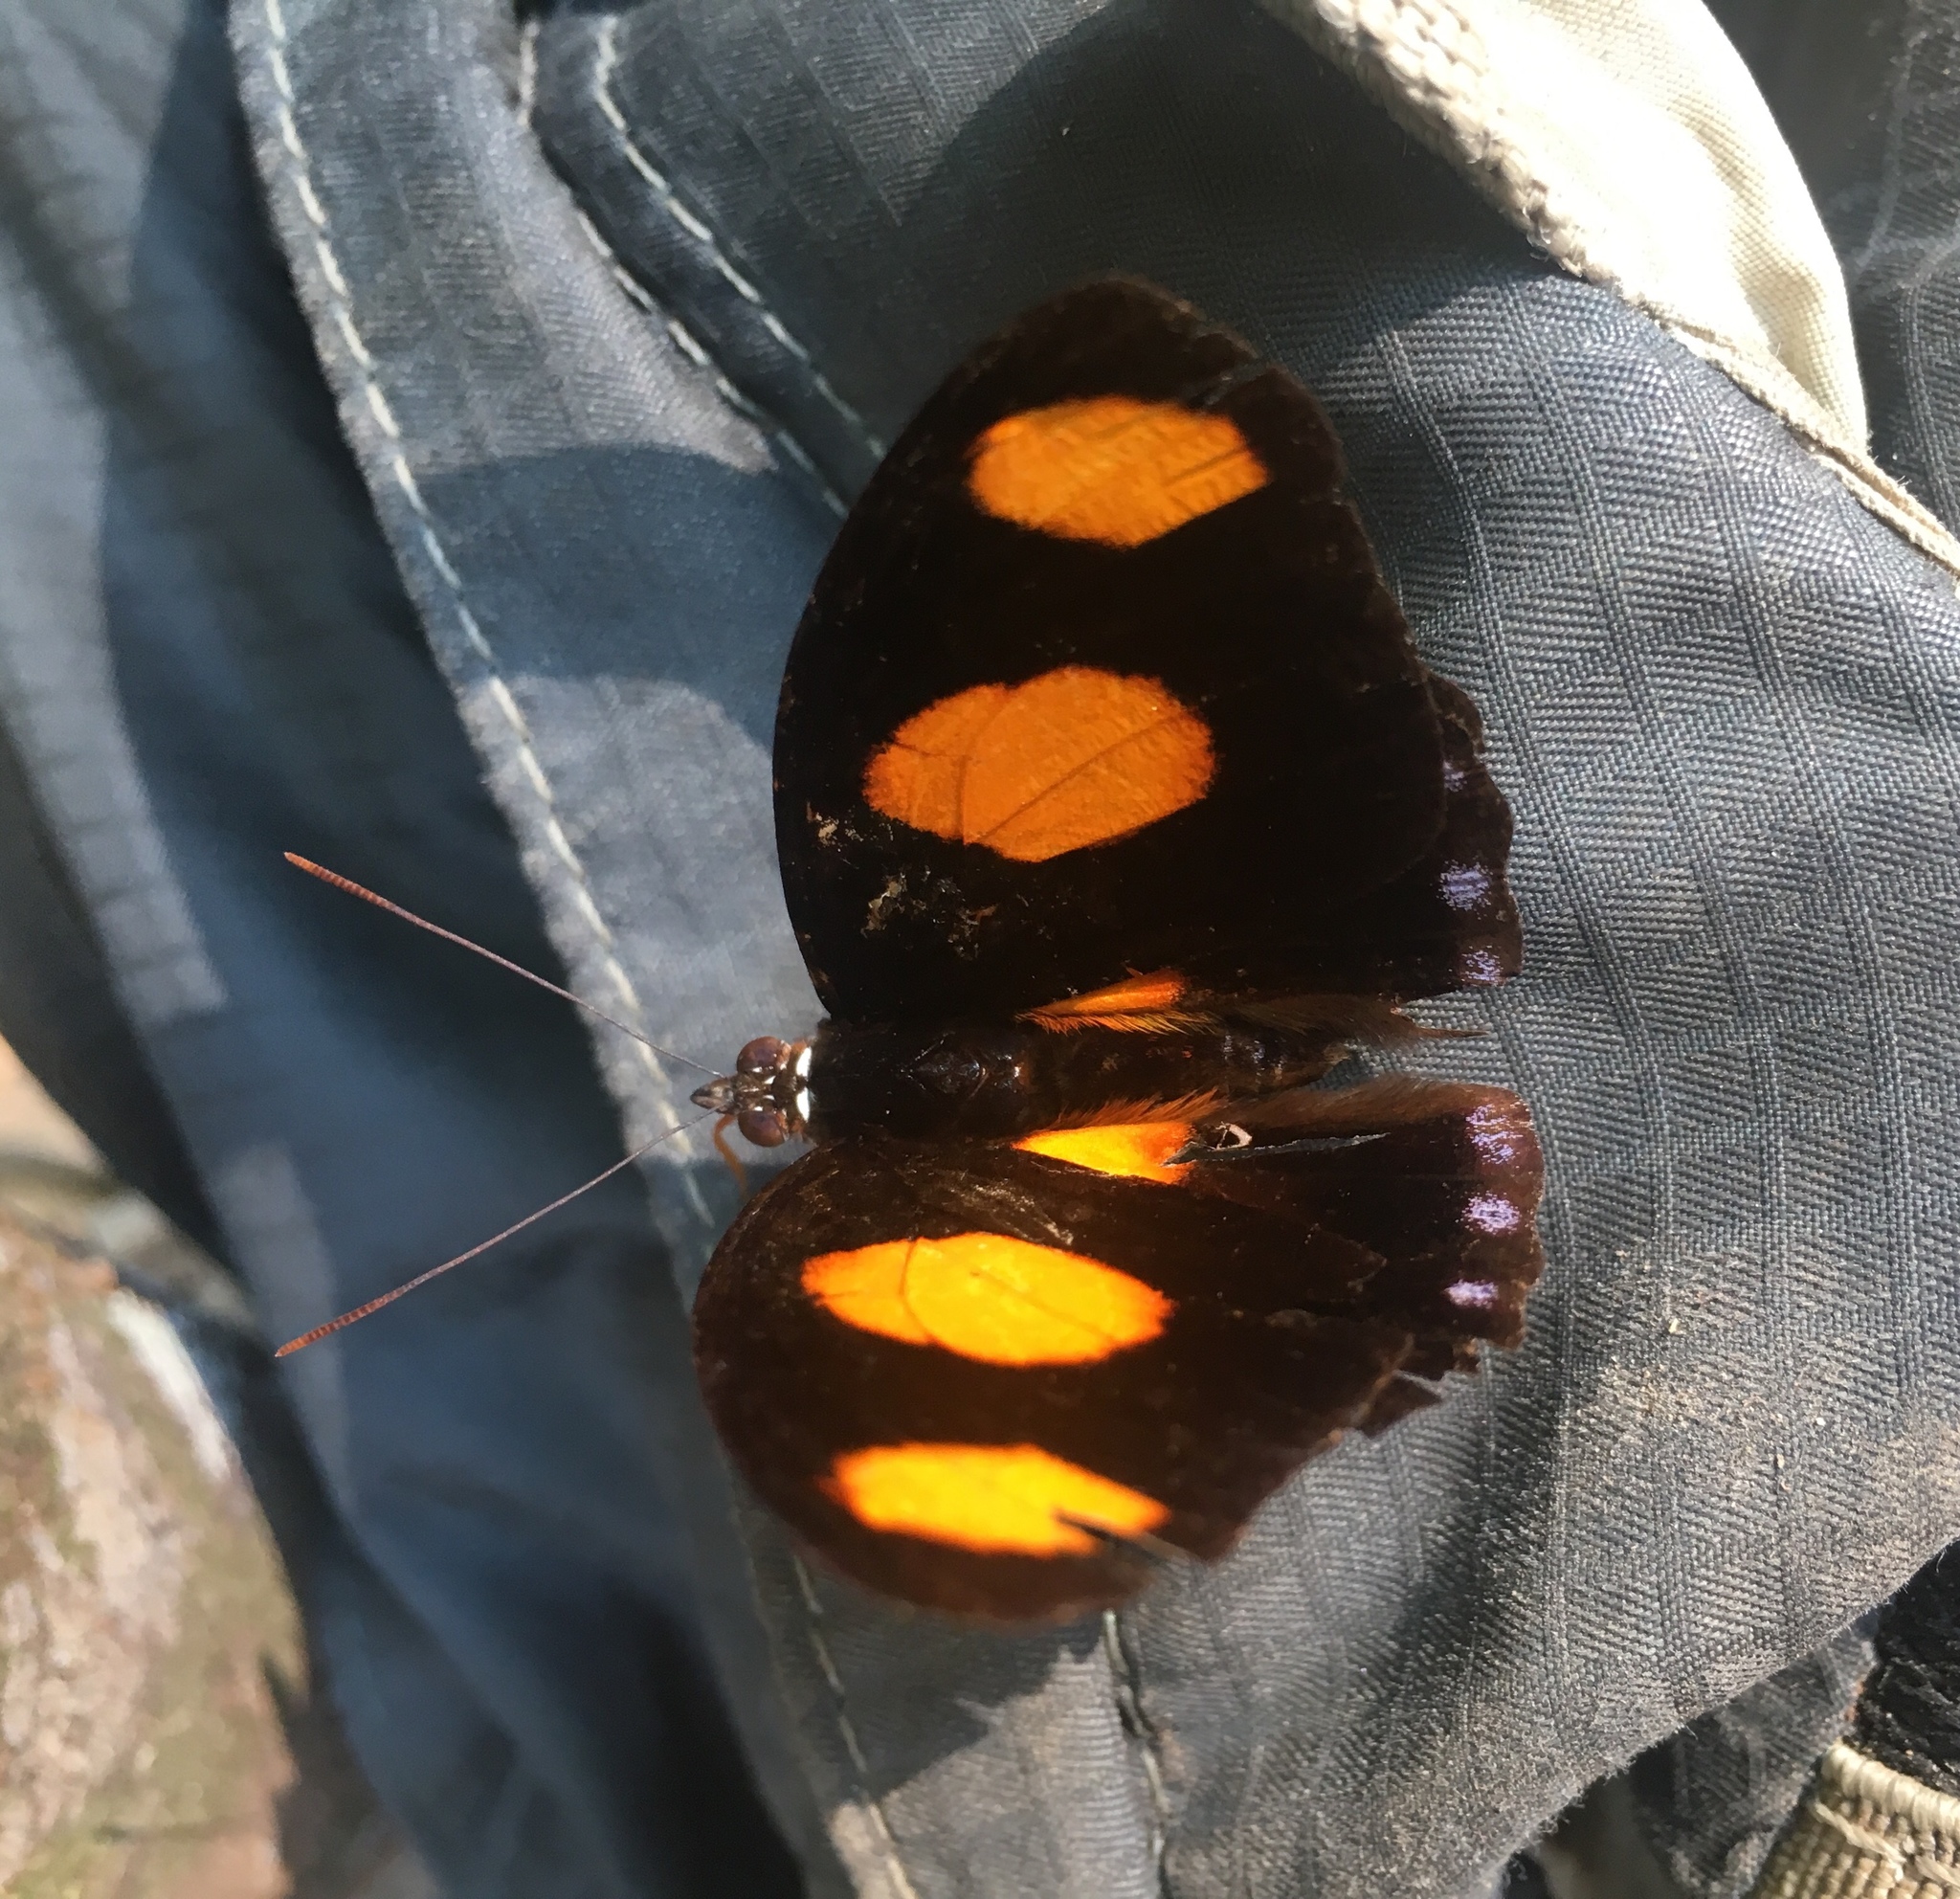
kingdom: Animalia
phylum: Arthropoda
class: Insecta
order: Lepidoptera
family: Nymphalidae
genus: Catonephele
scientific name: Catonephele numilia
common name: Blue-frosted banner
